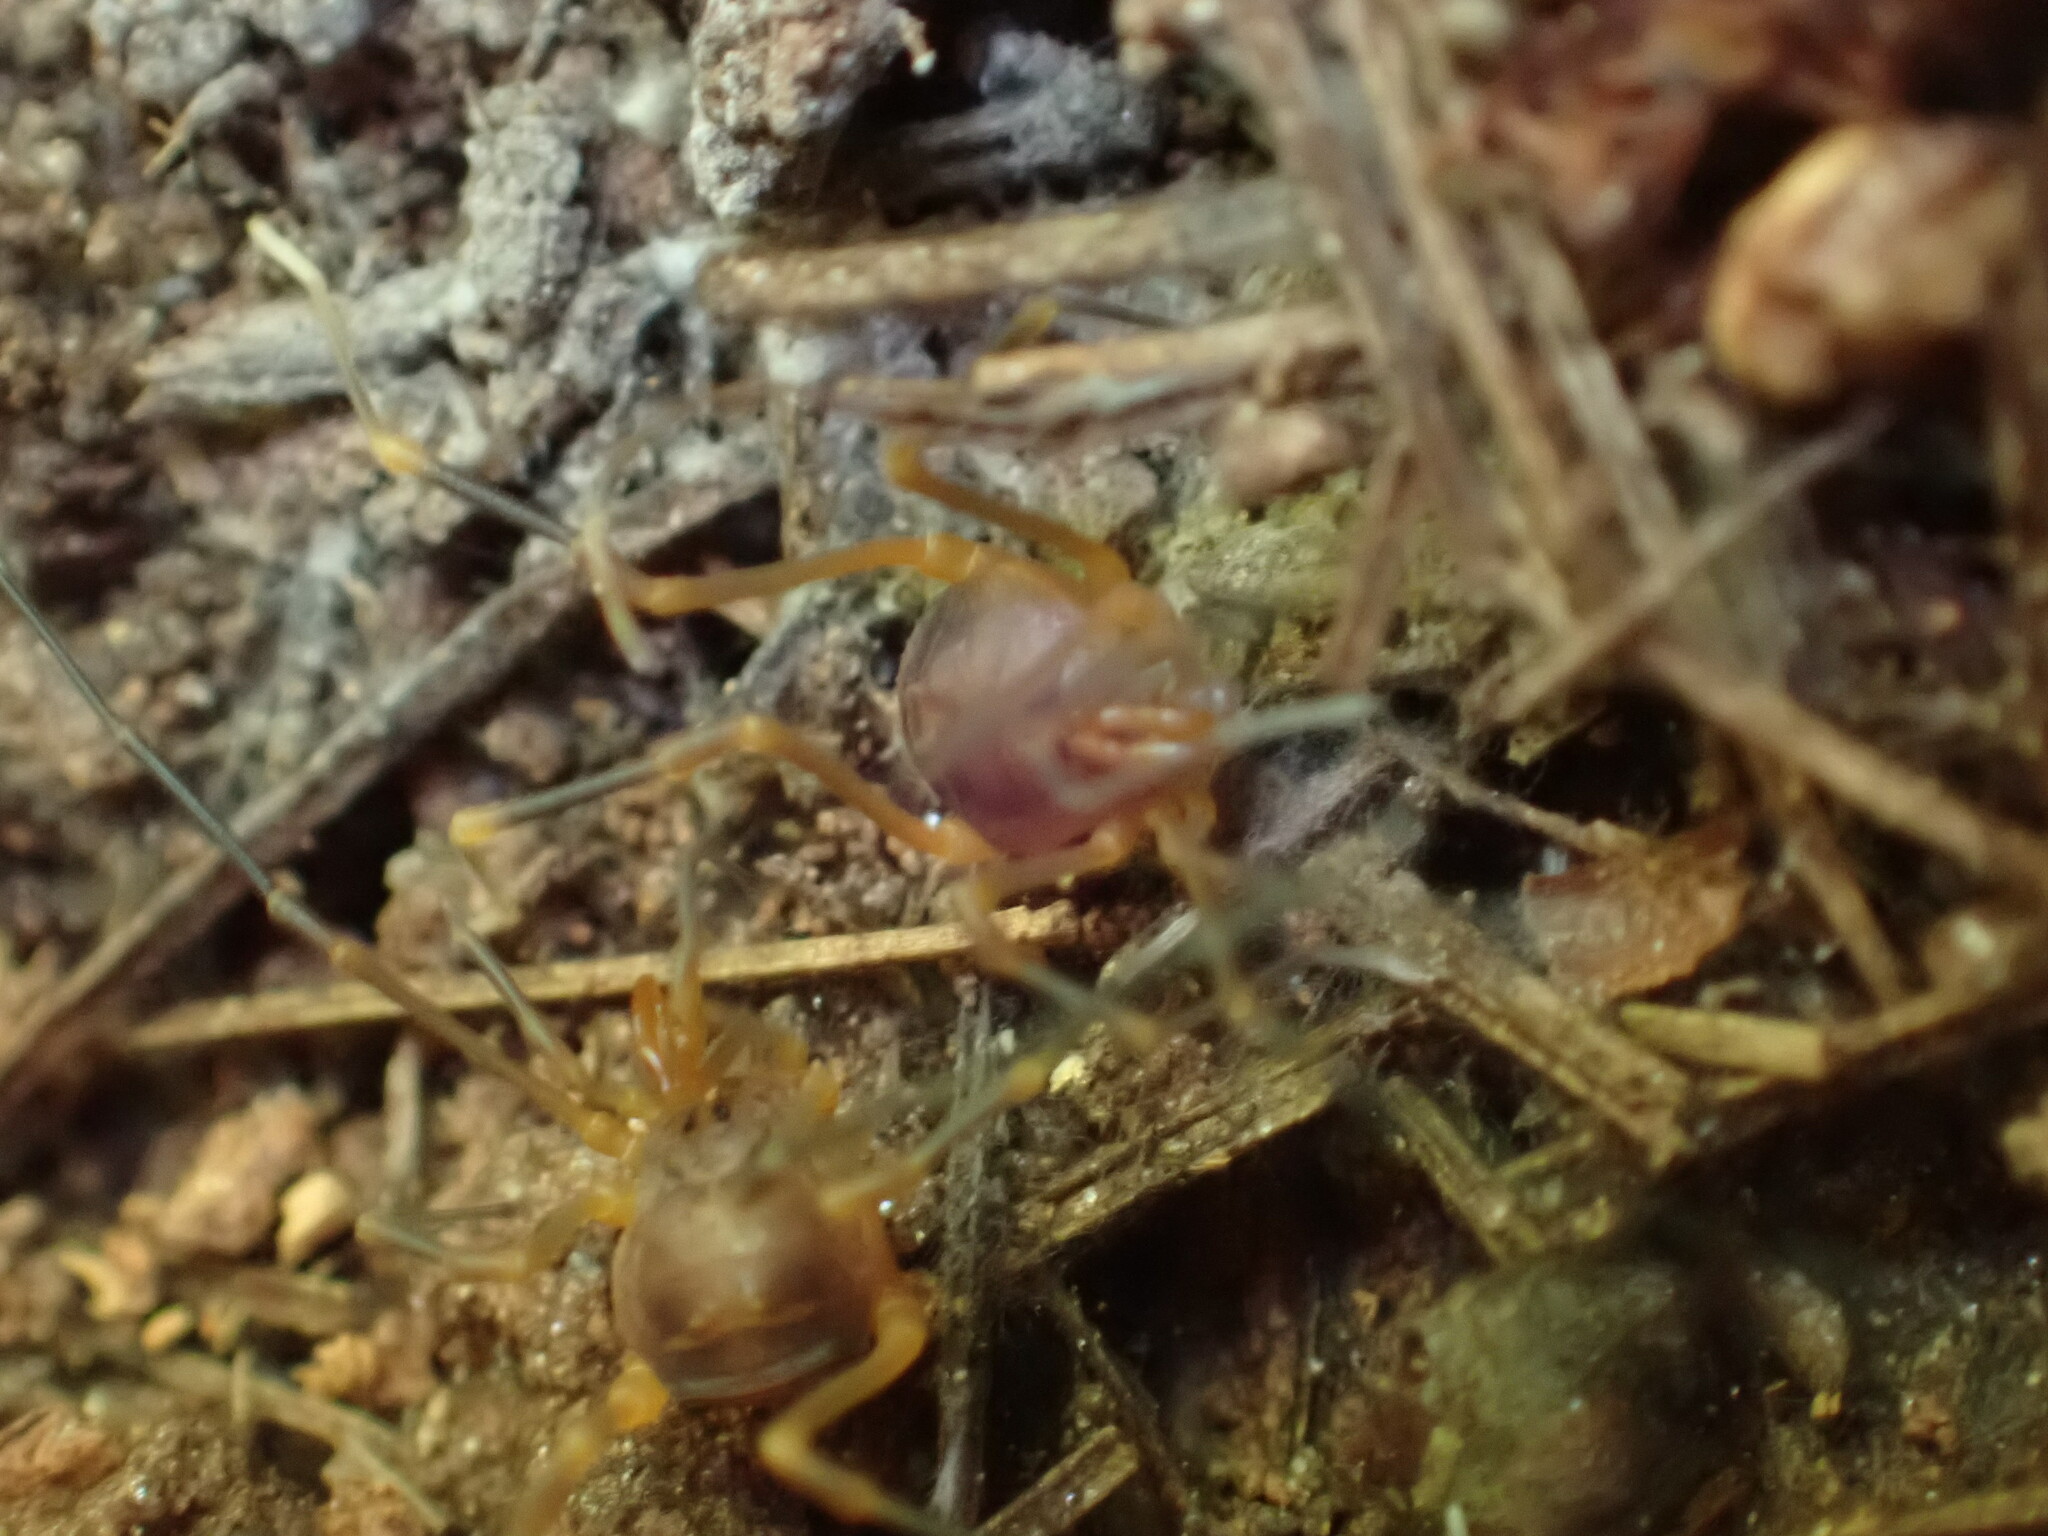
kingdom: Animalia
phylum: Arthropoda
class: Arachnida
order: Opiliones
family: Cosmetidae
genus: Libitioides
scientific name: Libitioides sayi
